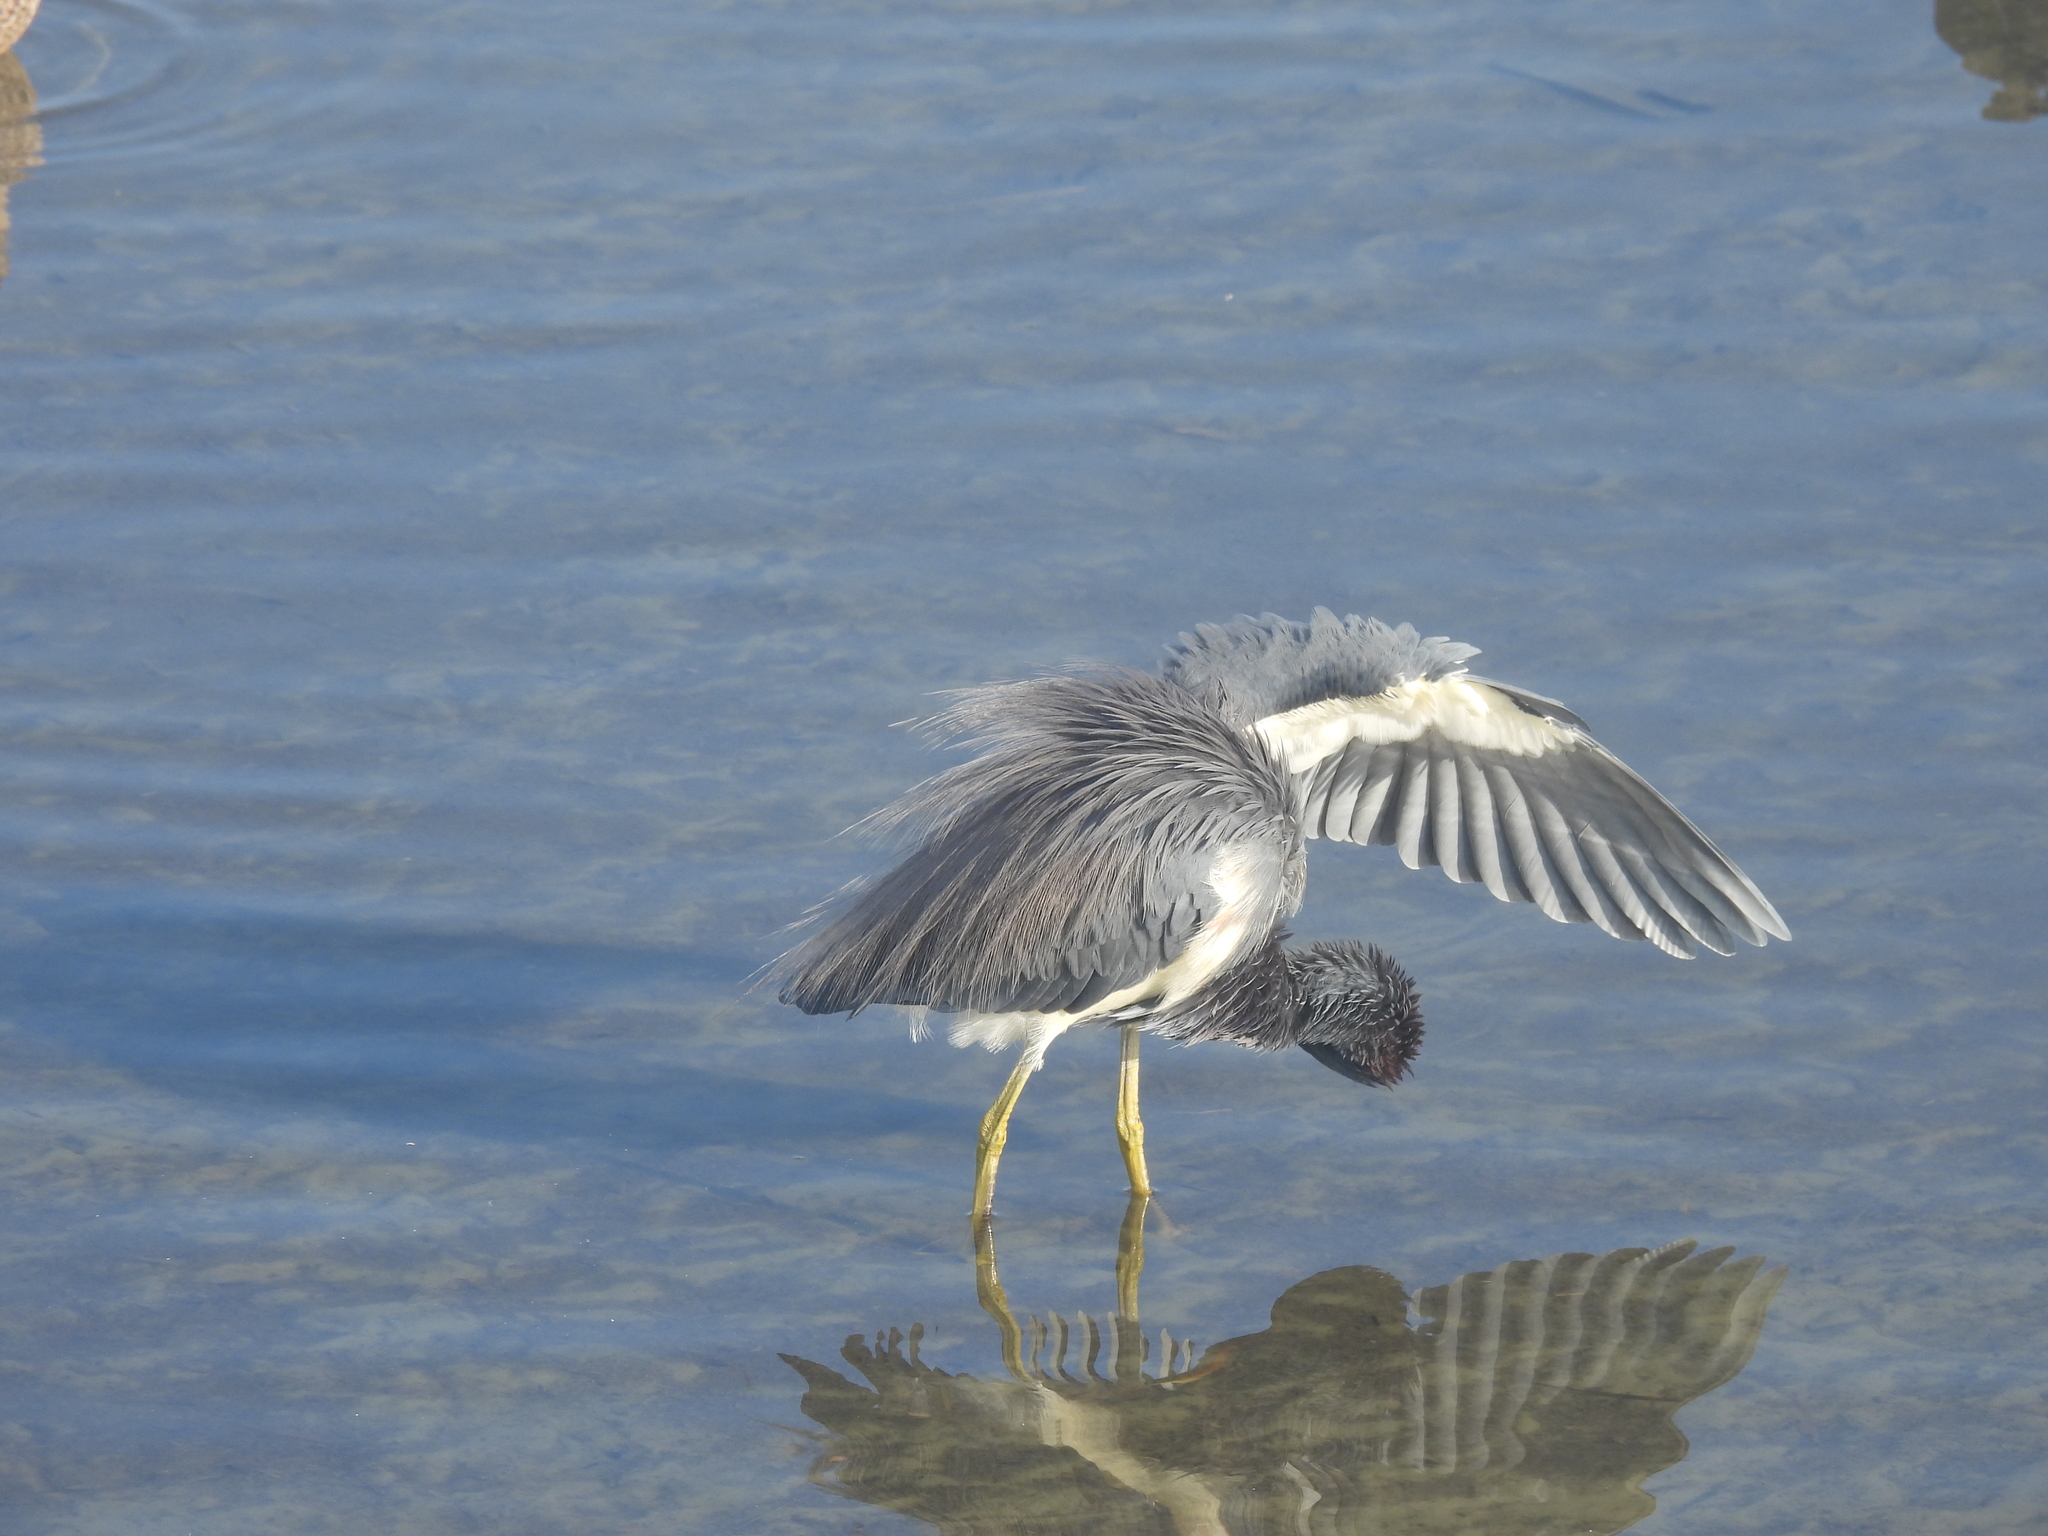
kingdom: Animalia
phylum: Chordata
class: Aves
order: Pelecaniformes
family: Ardeidae
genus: Egretta
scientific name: Egretta tricolor
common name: Tricolored heron
